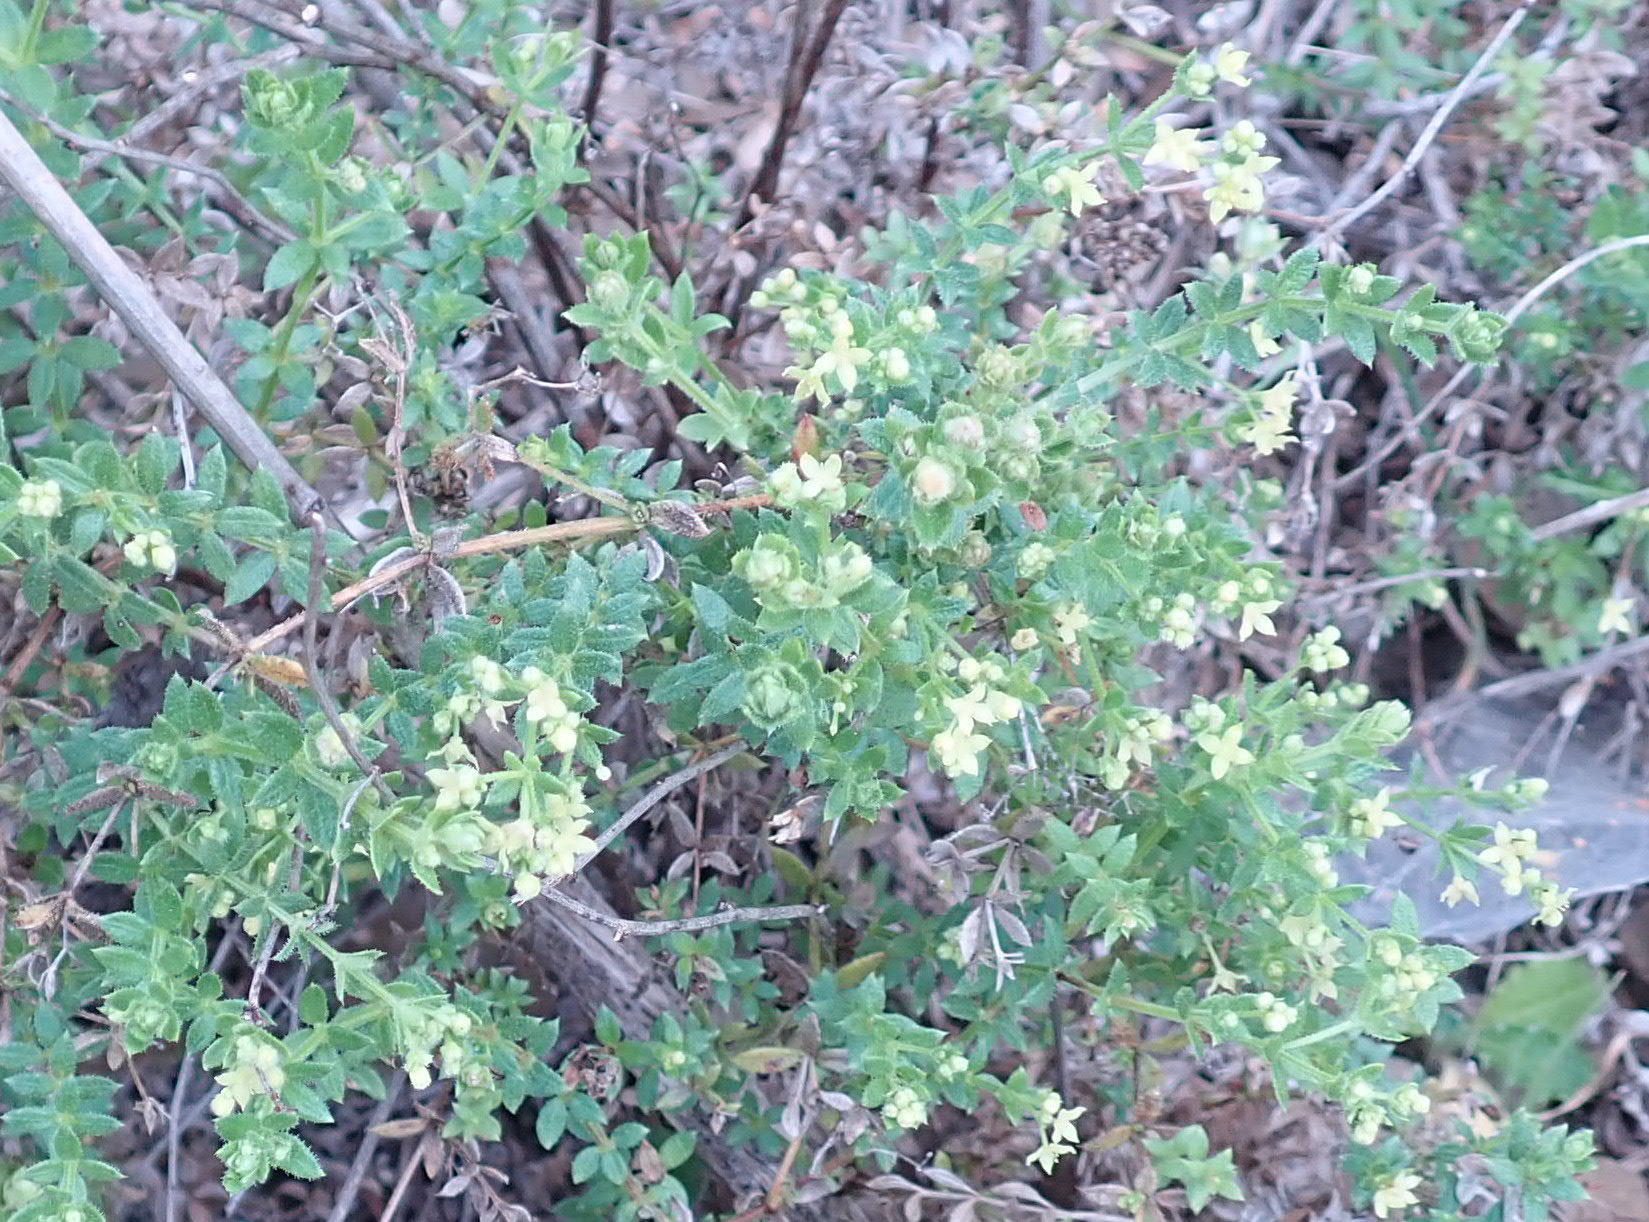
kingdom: Plantae
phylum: Tracheophyta
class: Magnoliopsida
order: Gentianales
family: Rubiaceae
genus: Galium
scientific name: Galium porrigens
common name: Climbing bedstraw
